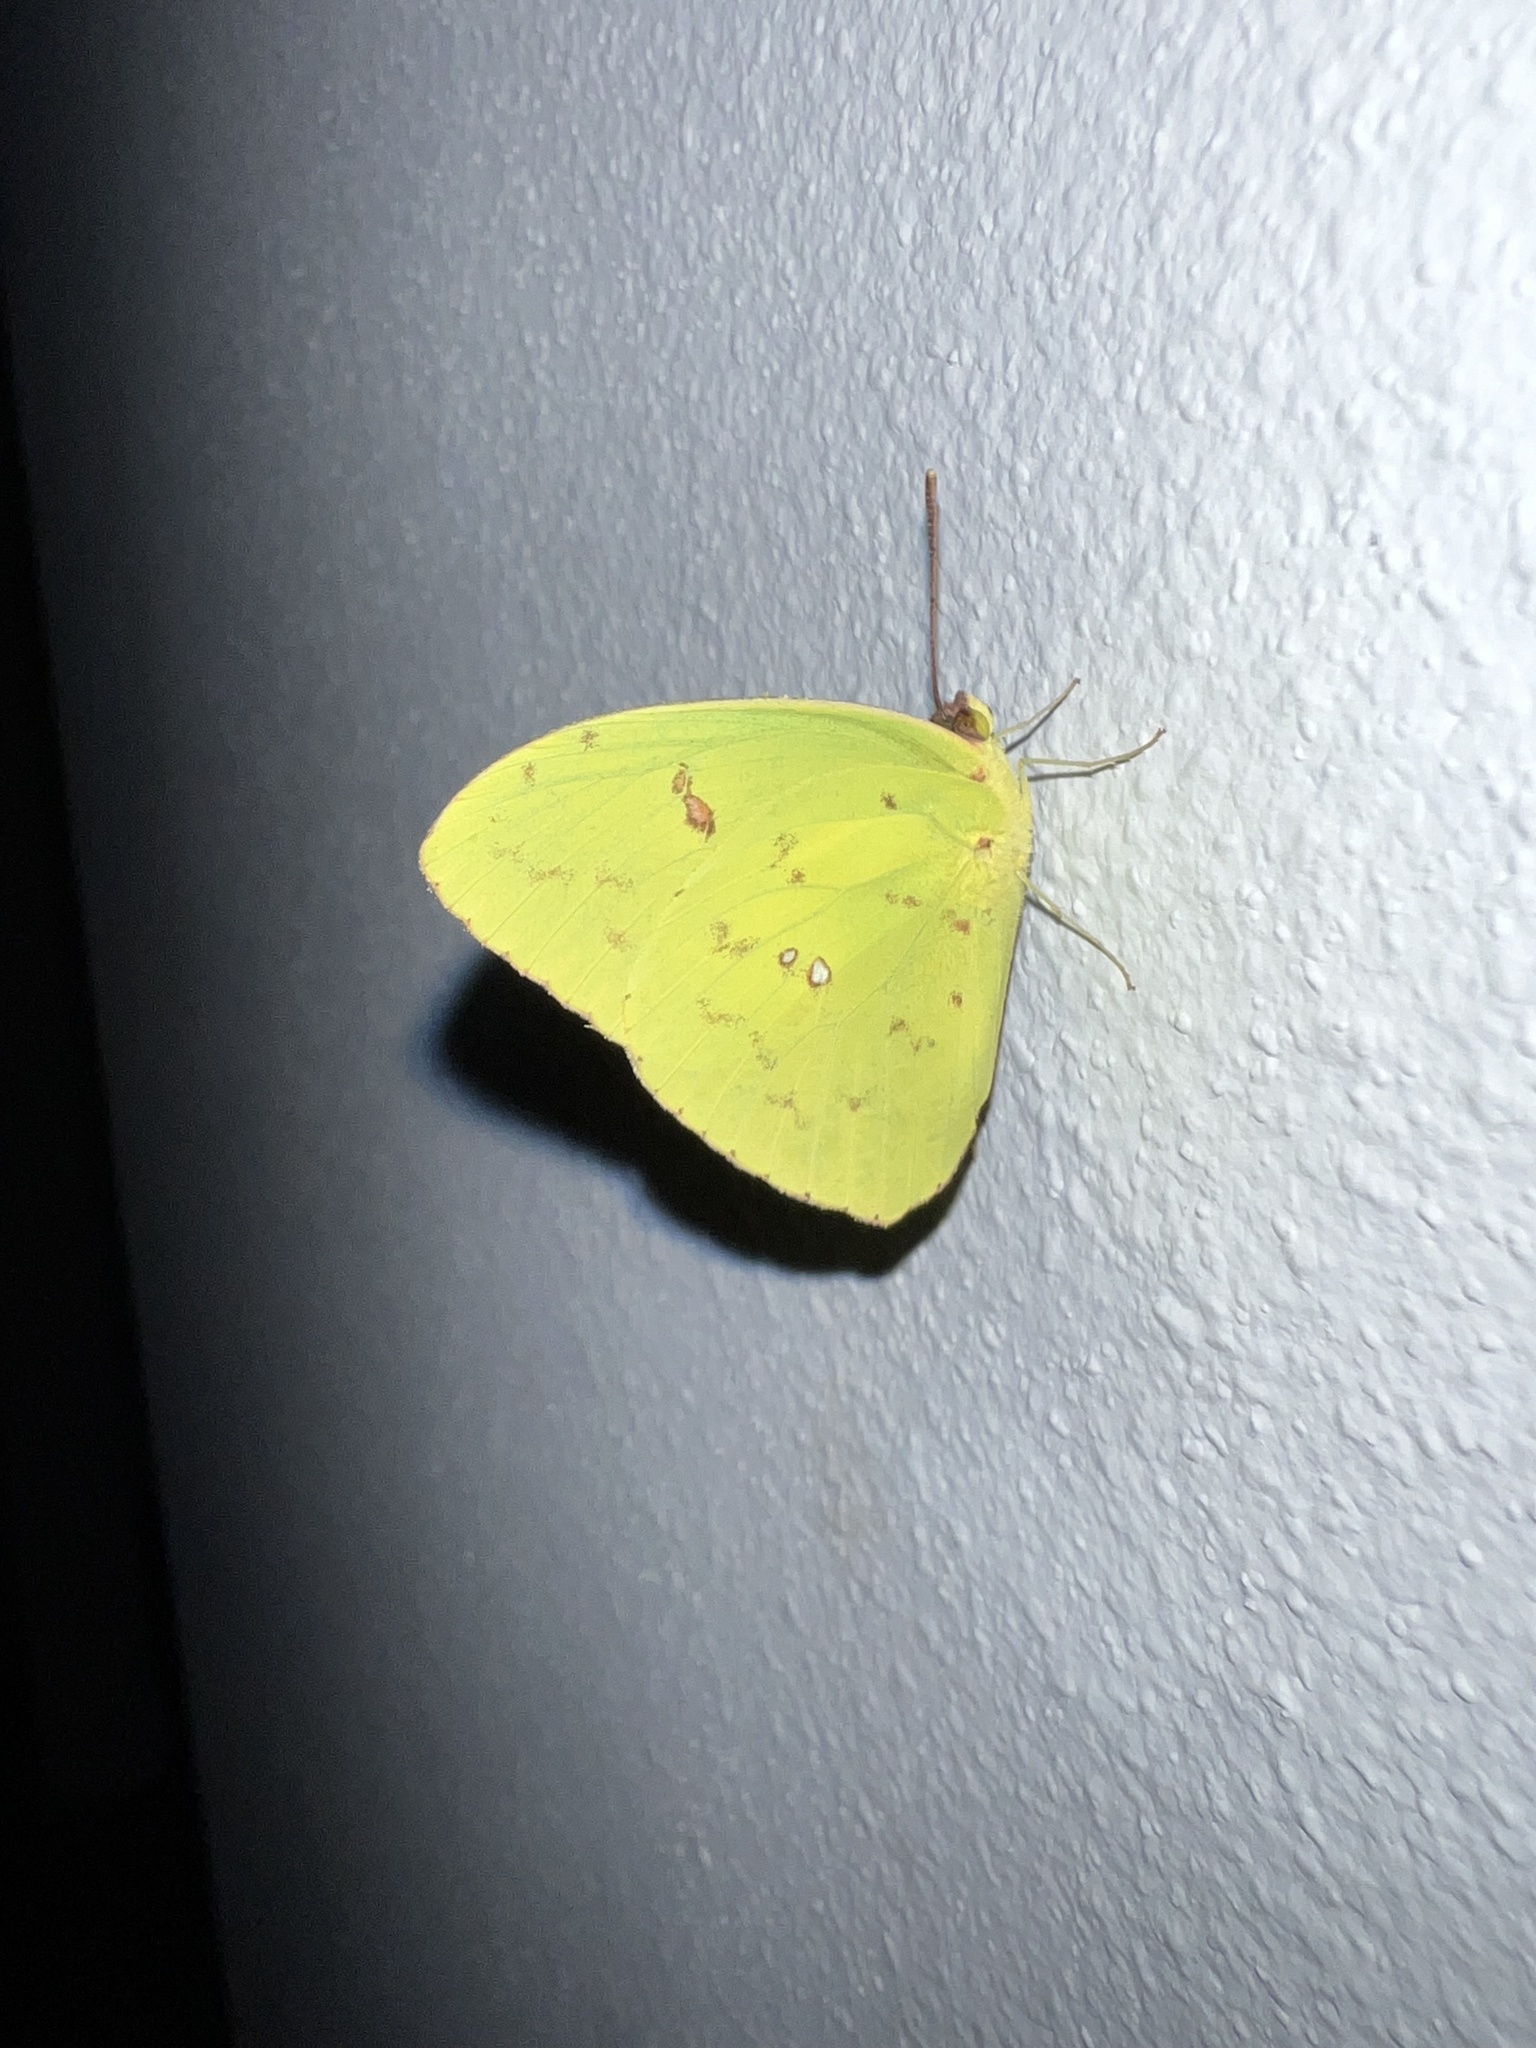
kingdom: Animalia
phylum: Arthropoda
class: Insecta
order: Lepidoptera
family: Pieridae
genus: Phoebis
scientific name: Phoebis sennae
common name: Cloudless sulphur
